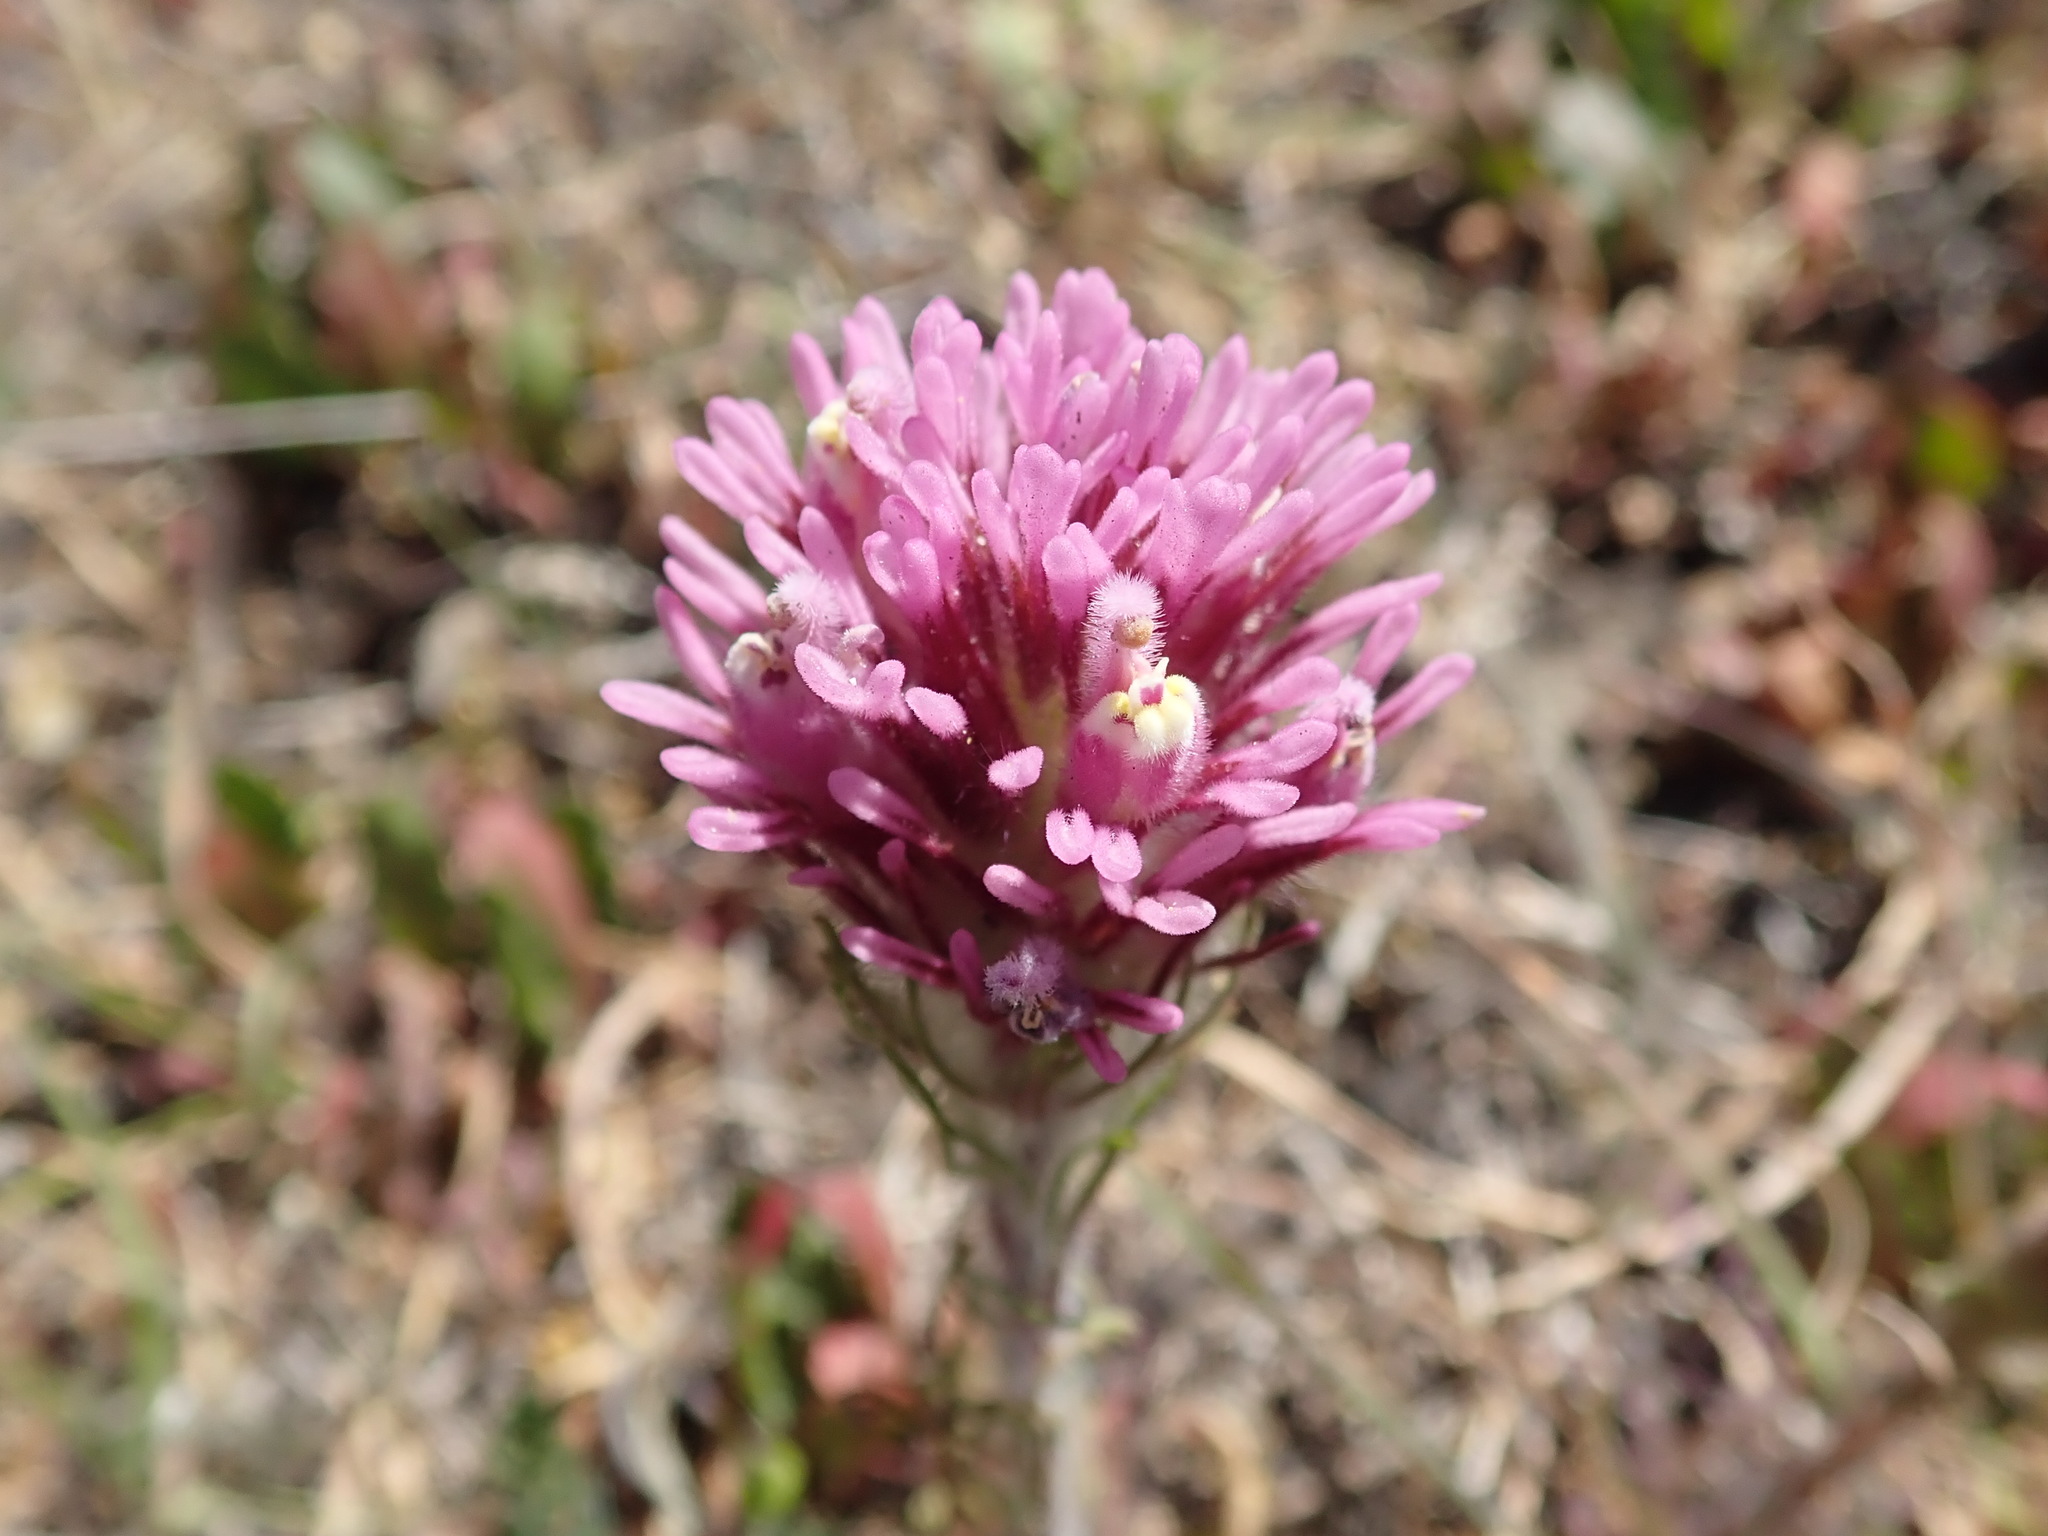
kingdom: Plantae
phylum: Tracheophyta
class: Magnoliopsida
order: Lamiales
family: Orobanchaceae
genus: Castilleja
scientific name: Castilleja exserta
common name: Purple owl-clover
